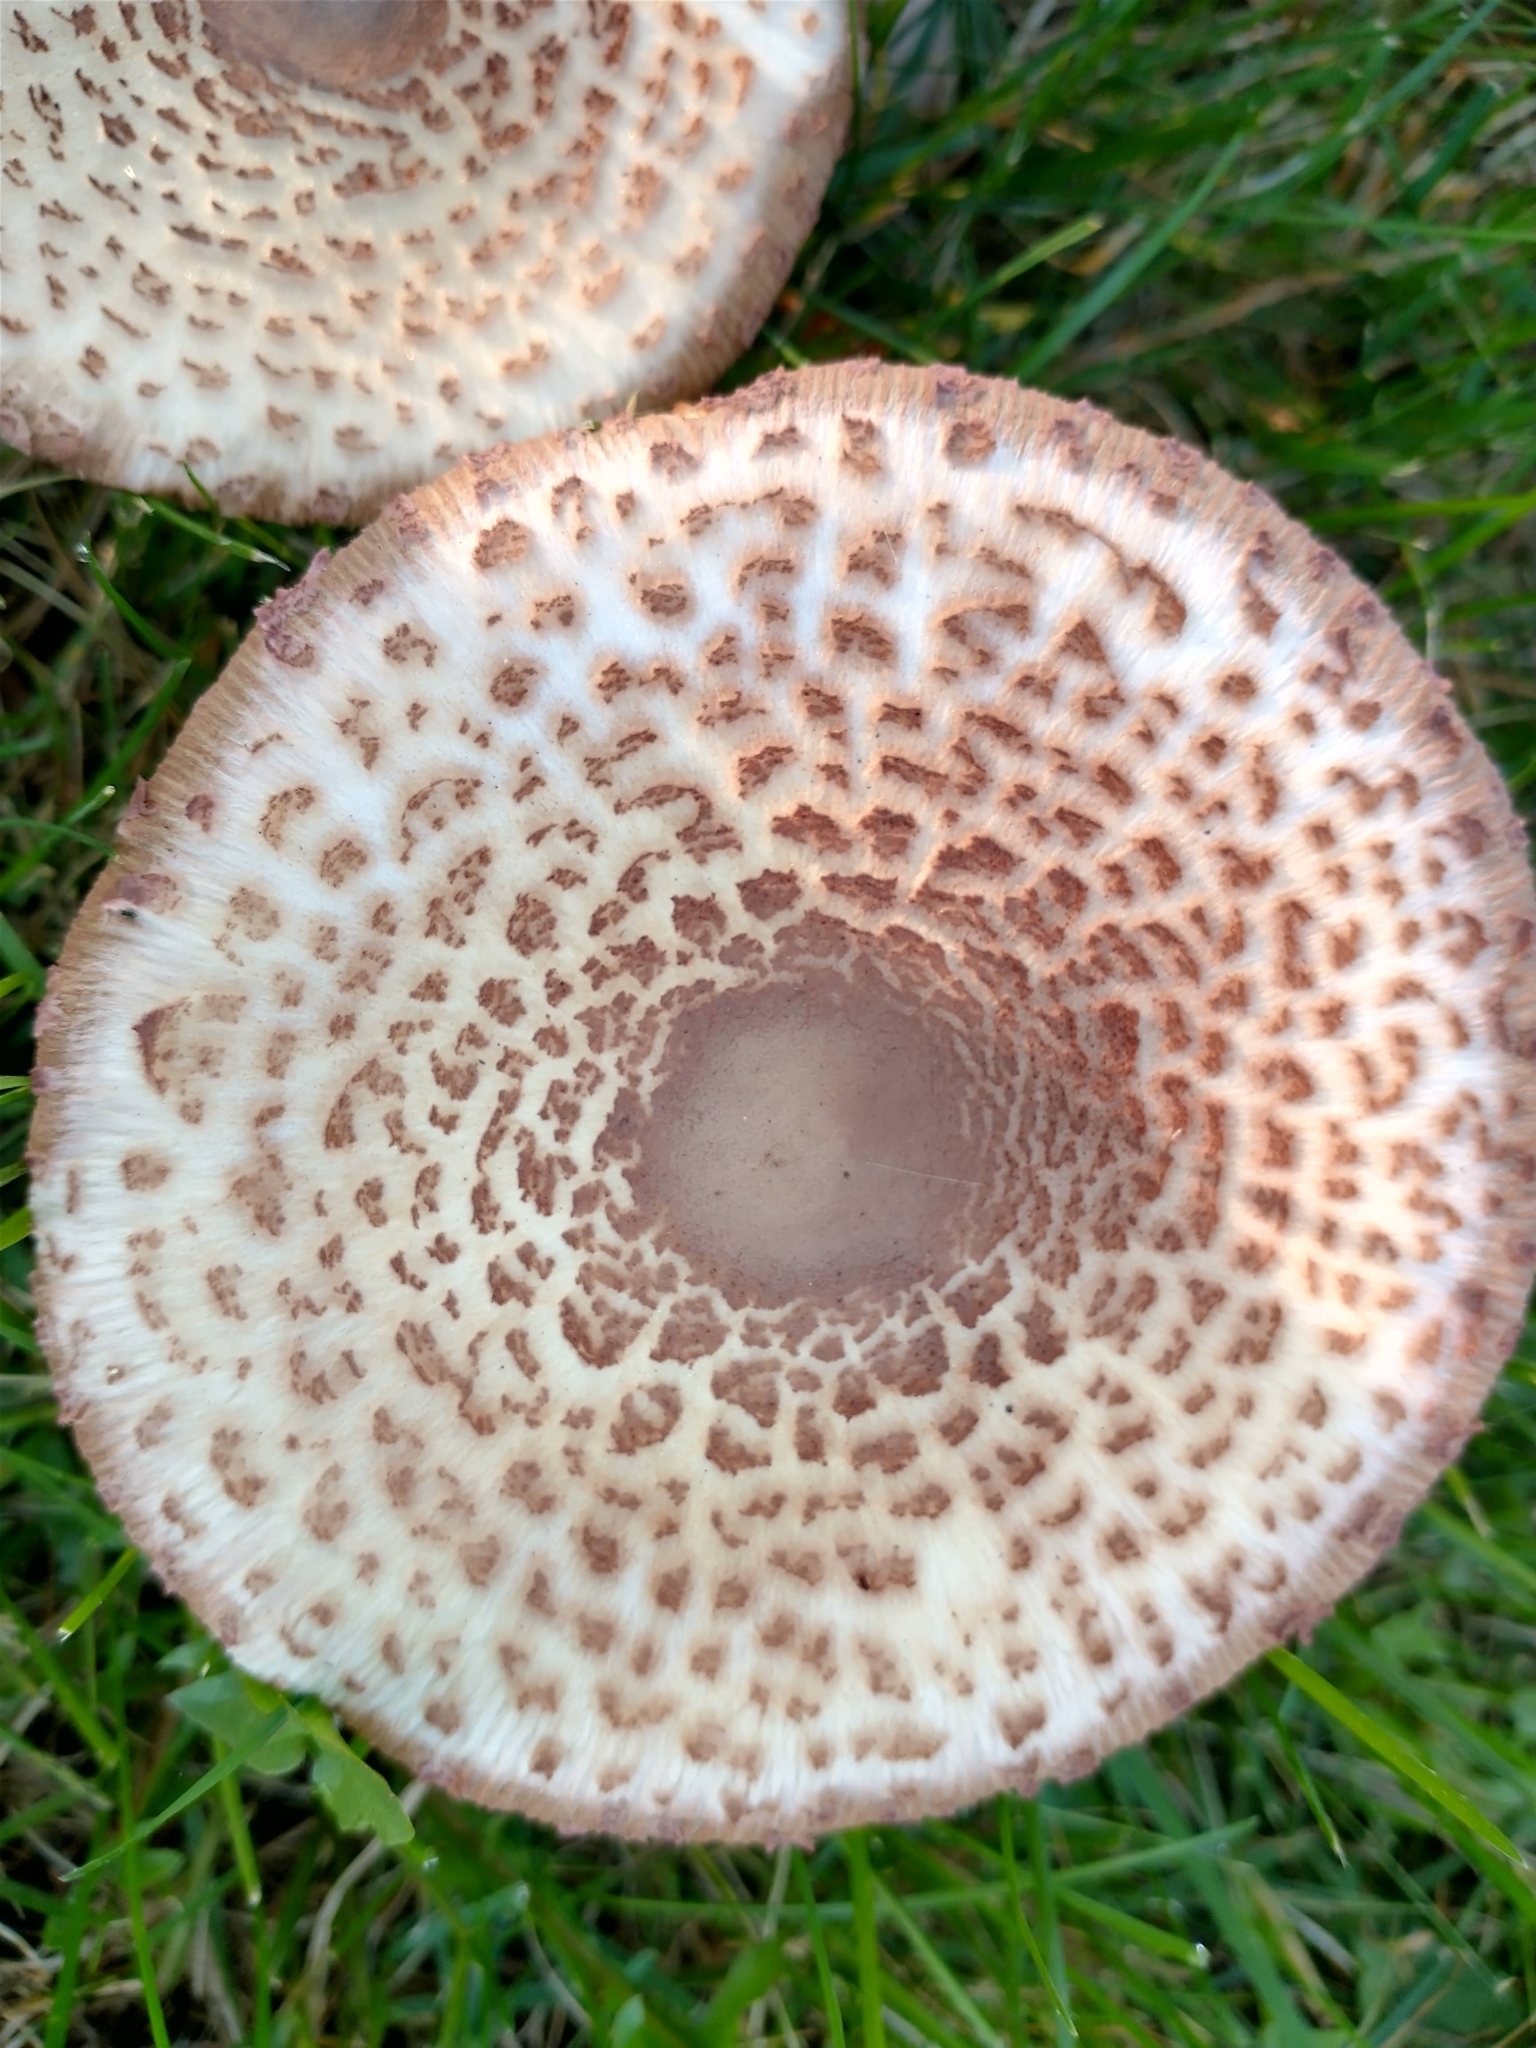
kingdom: Fungi
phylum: Basidiomycota
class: Agaricomycetes
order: Agaricales
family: Agaricaceae
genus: Leucoagaricus
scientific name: Leucoagaricus americanus
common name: Reddening lepiota
